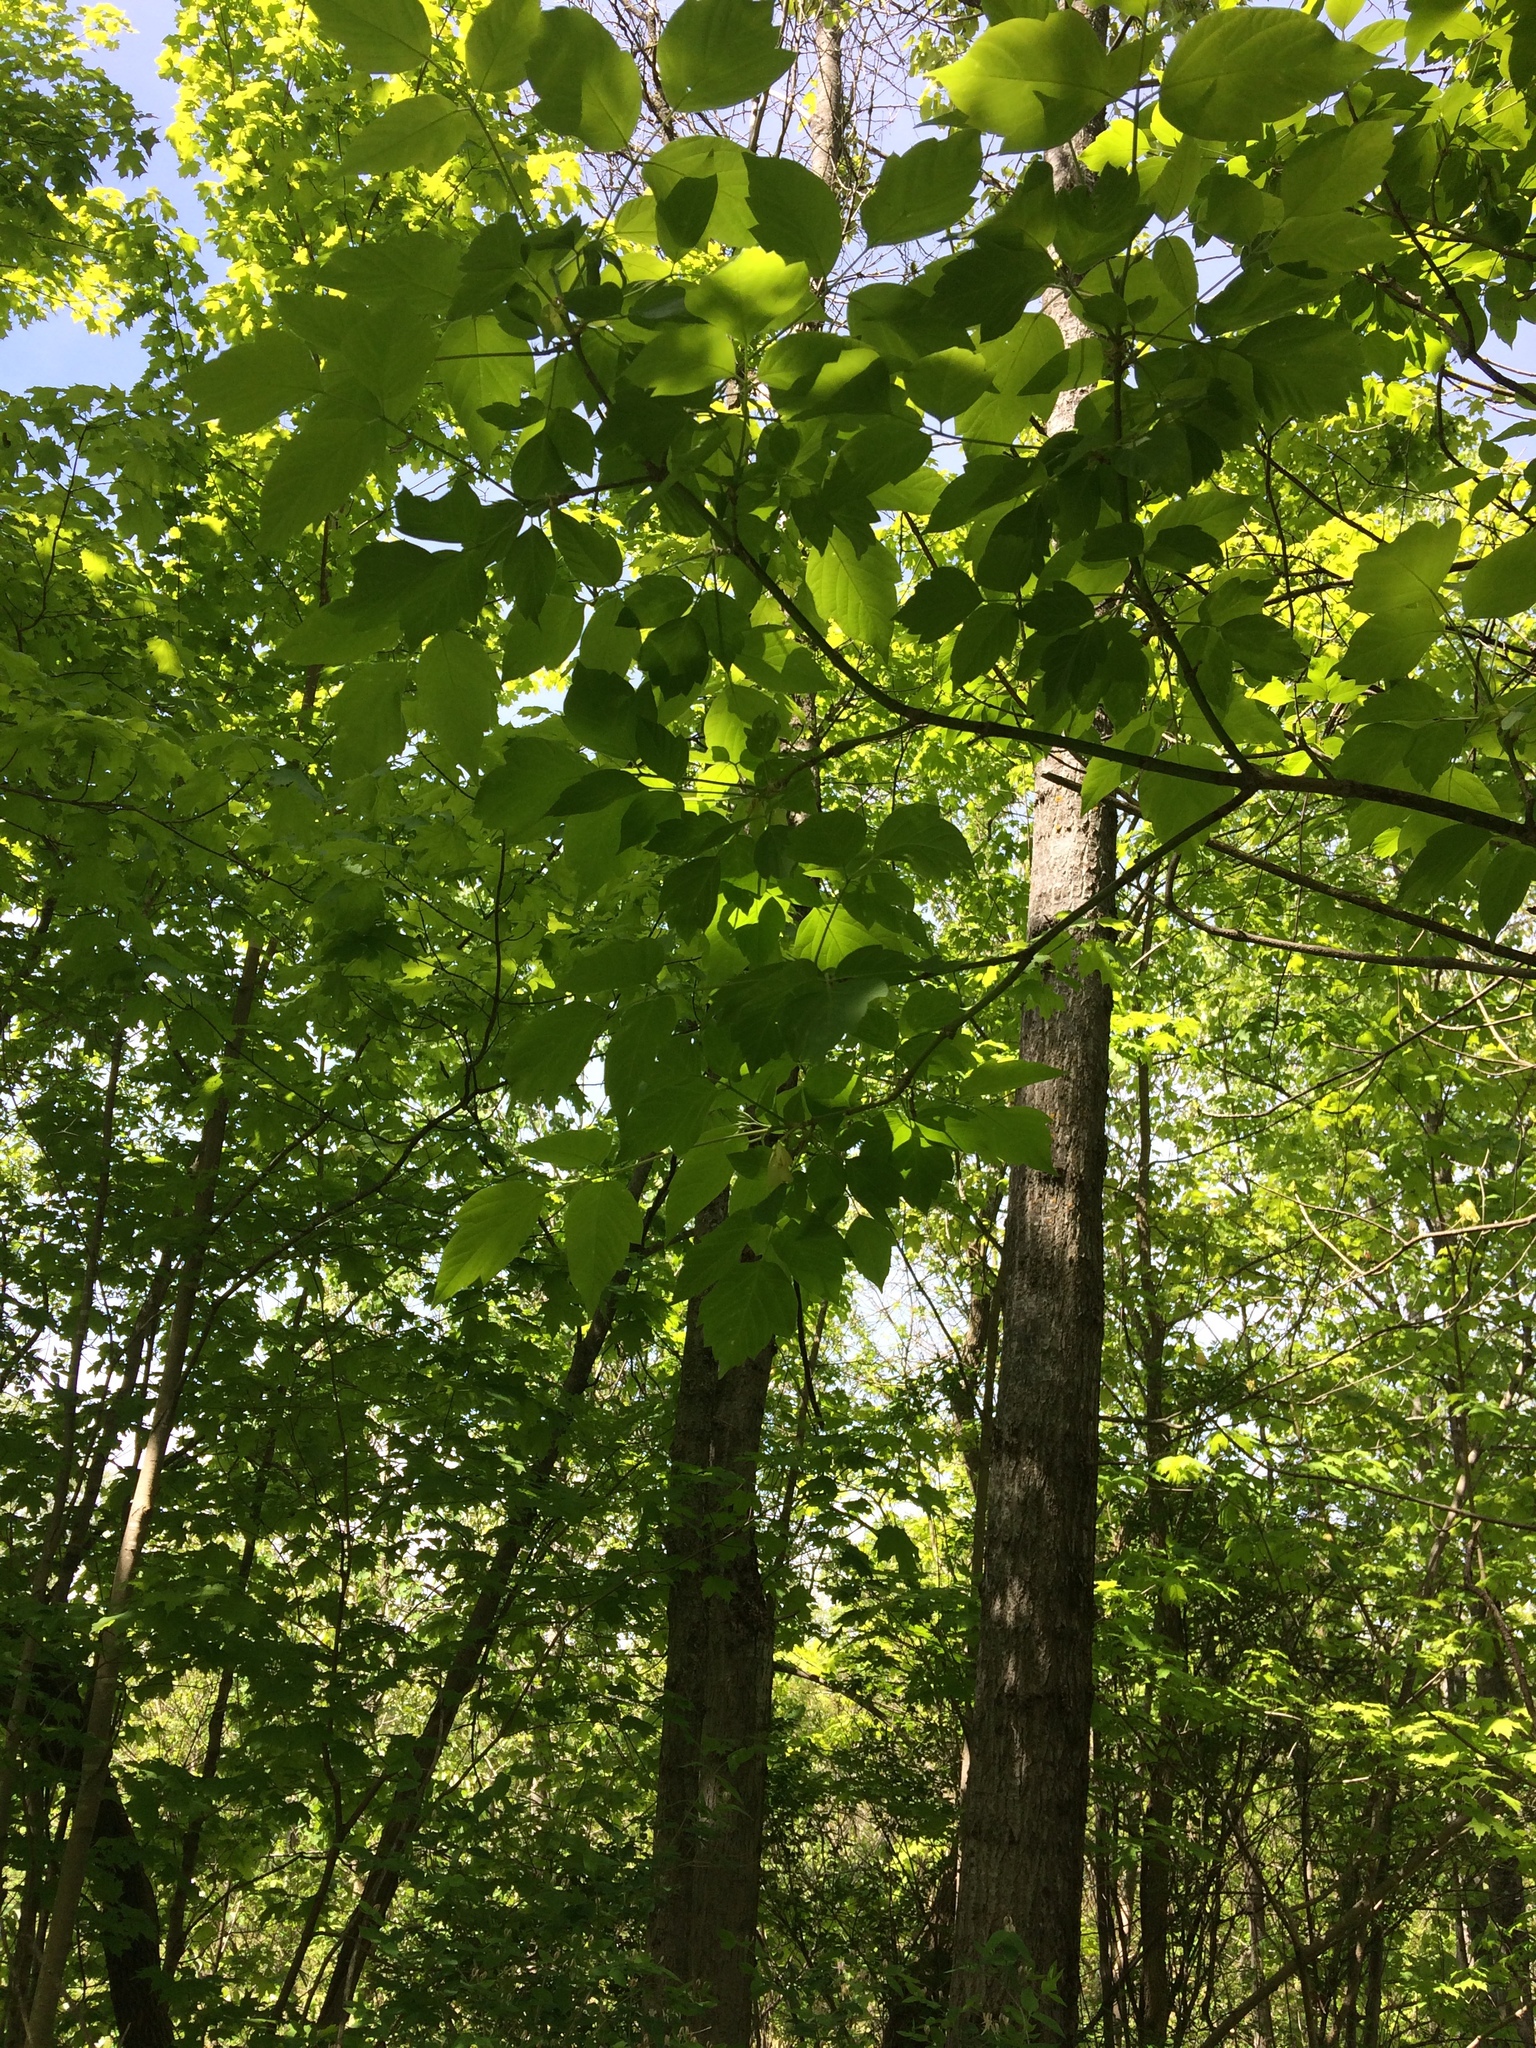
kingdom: Plantae
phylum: Tracheophyta
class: Magnoliopsida
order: Sapindales
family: Sapindaceae
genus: Acer
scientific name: Acer negundo
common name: Ashleaf maple
